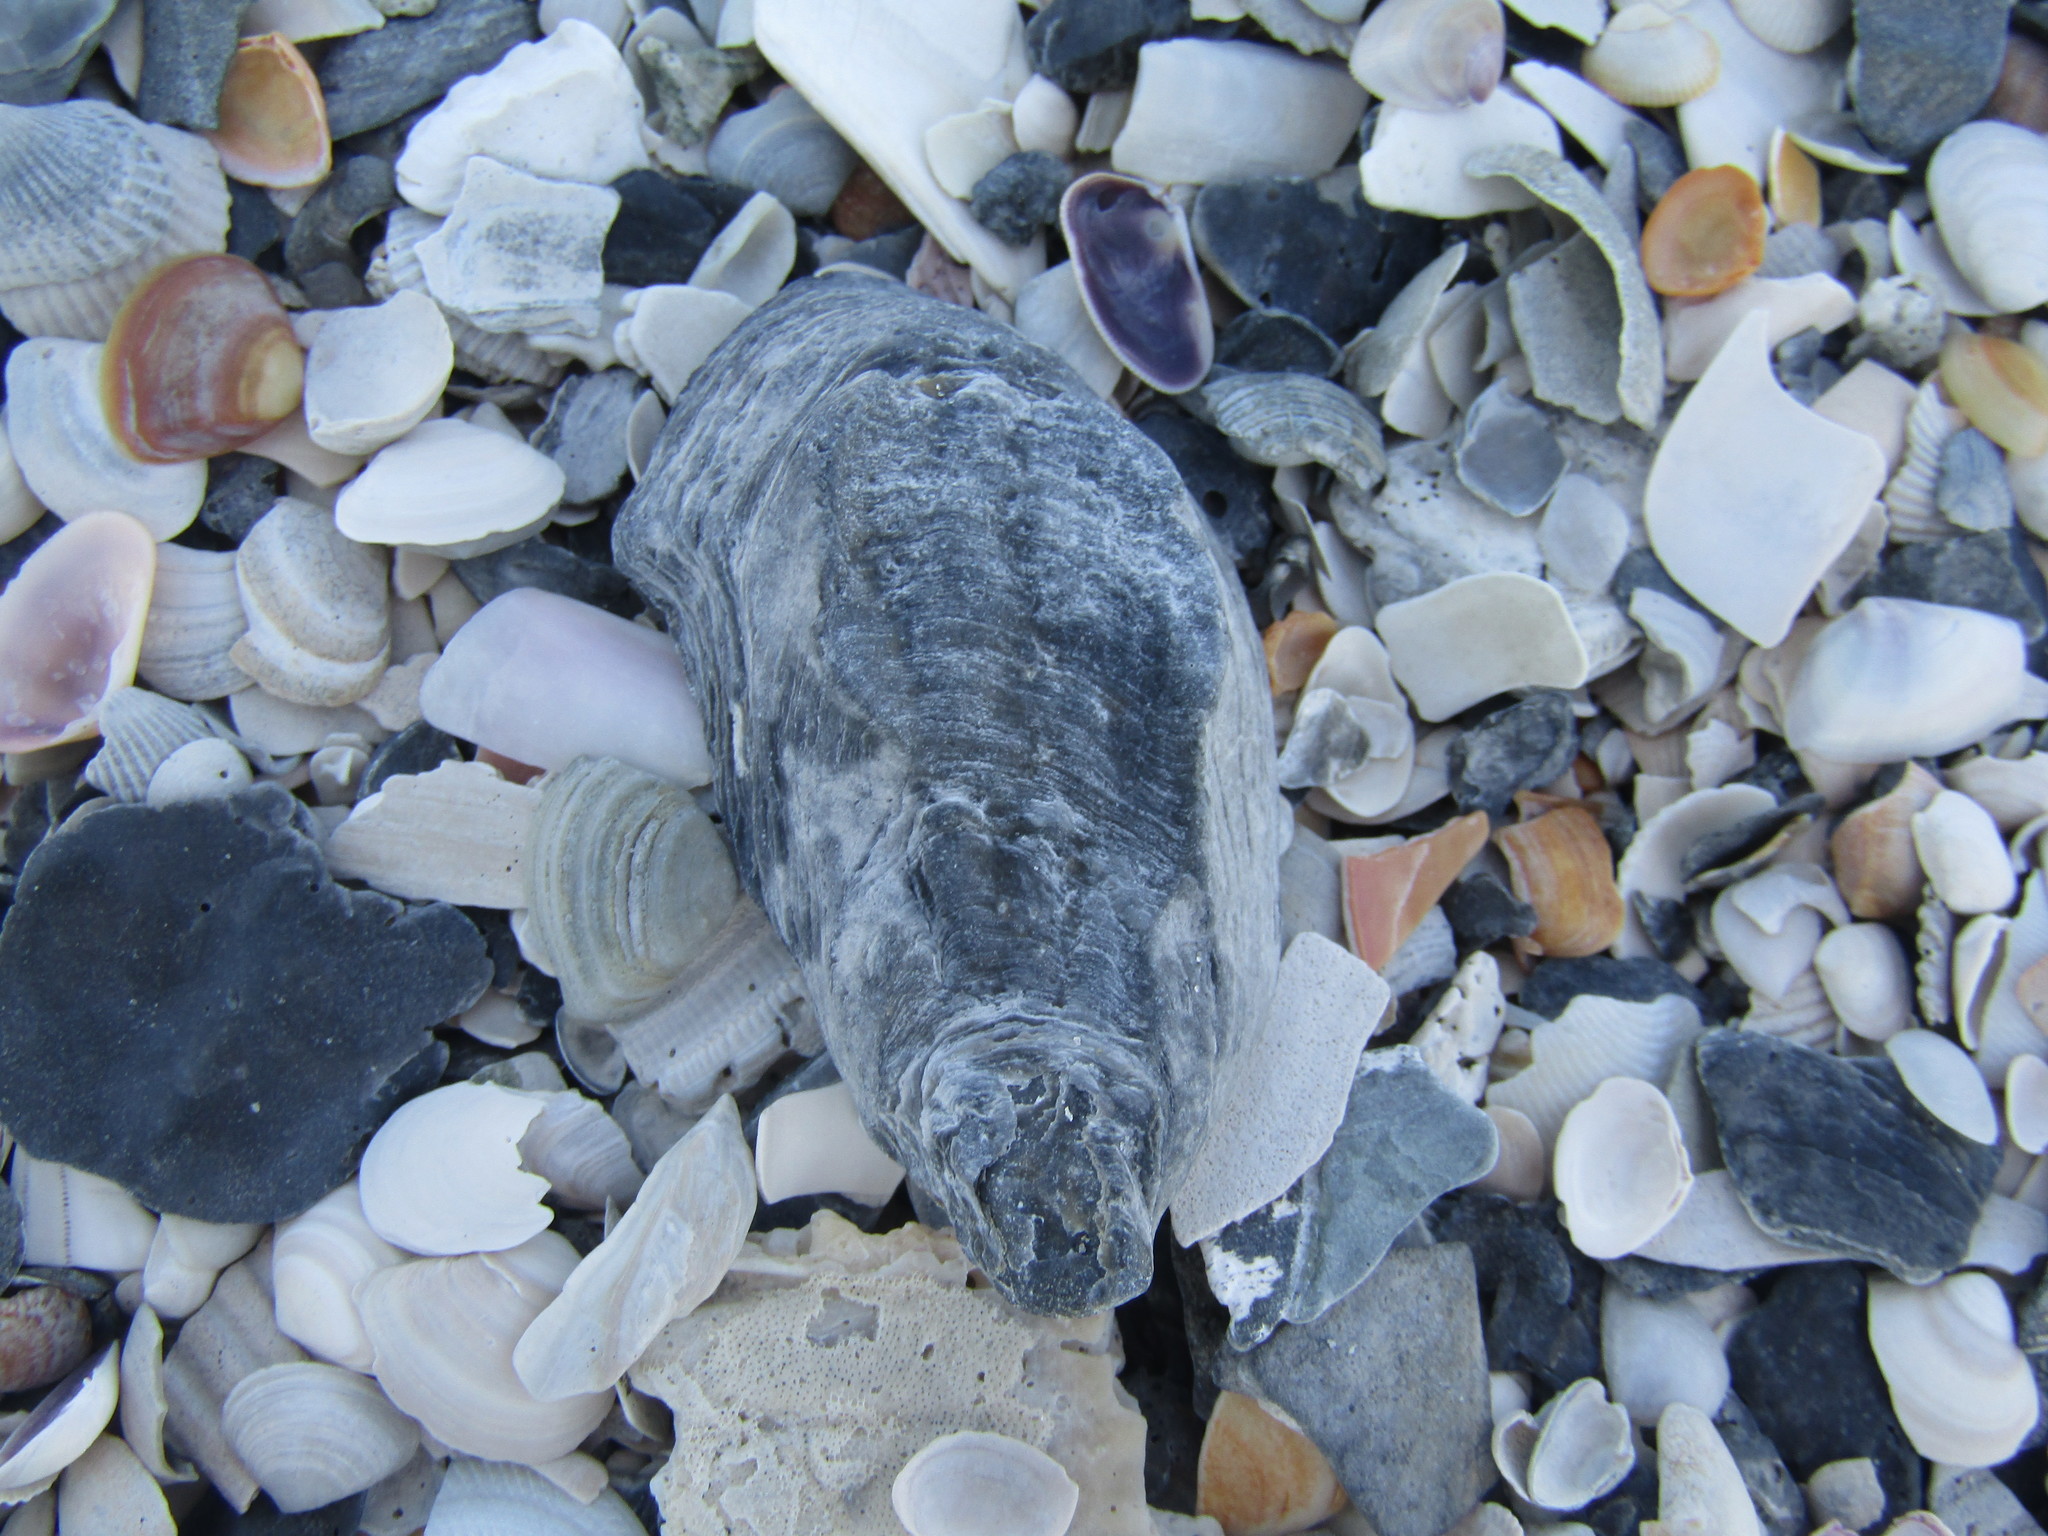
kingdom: Animalia
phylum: Mollusca
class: Bivalvia
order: Ostreida
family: Ostreidae
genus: Crassostrea
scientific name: Crassostrea virginica
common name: American oyster
